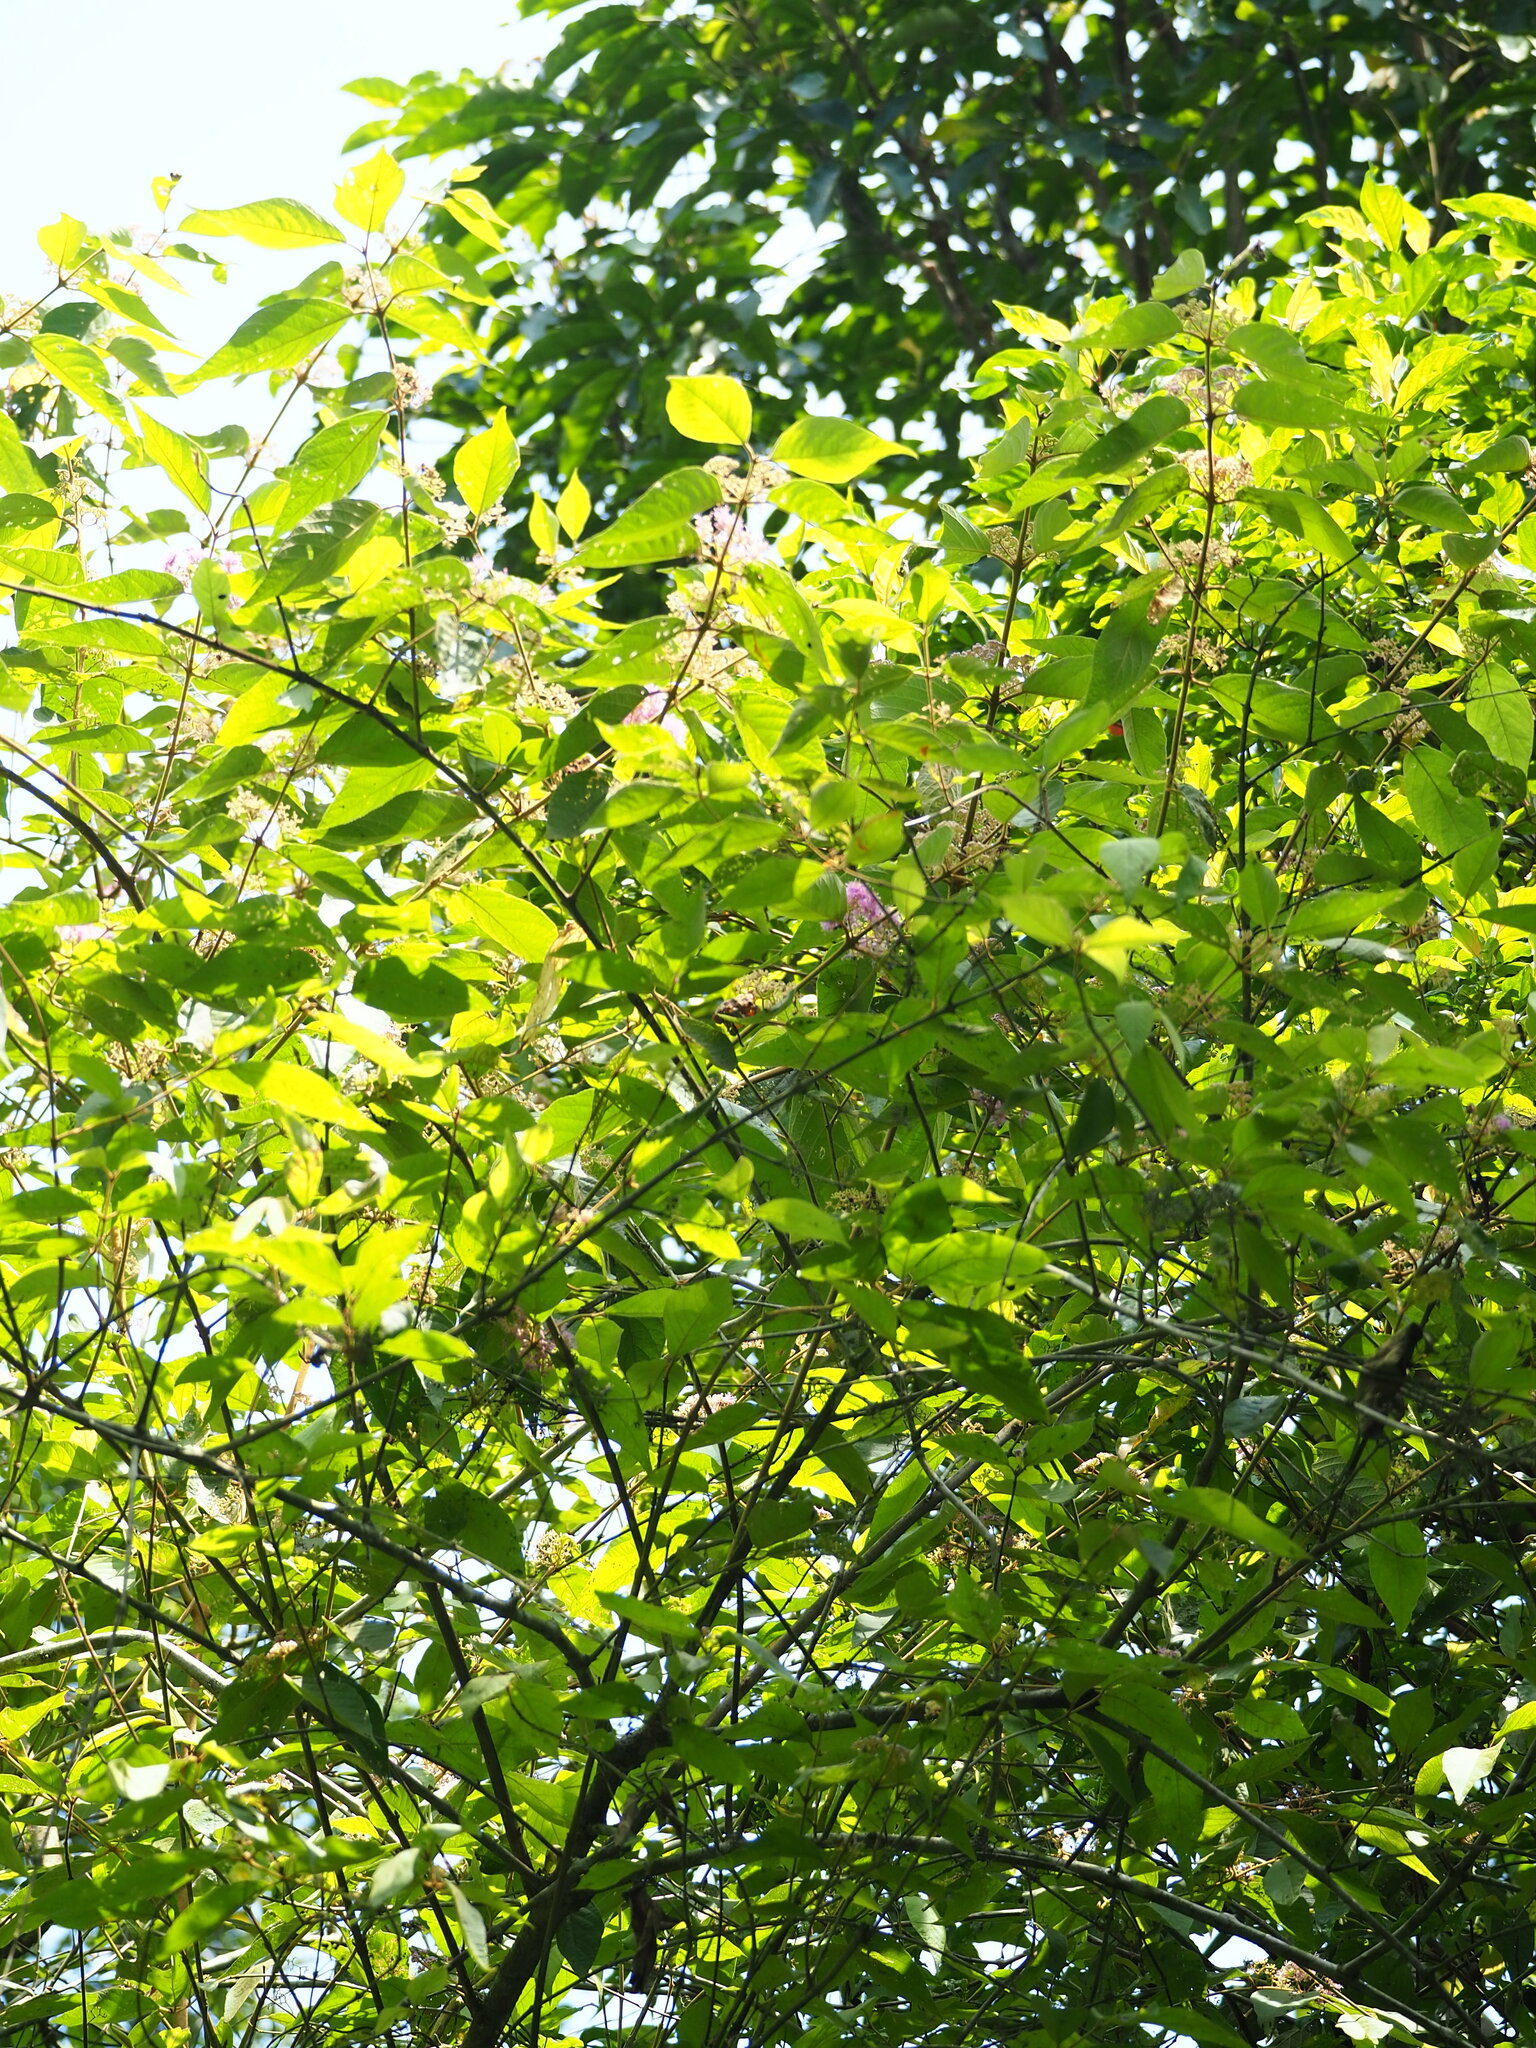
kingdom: Plantae
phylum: Tracheophyta
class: Magnoliopsida
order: Lamiales
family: Lamiaceae
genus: Callicarpa
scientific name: Callicarpa pedunculata
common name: Velvetleaf
